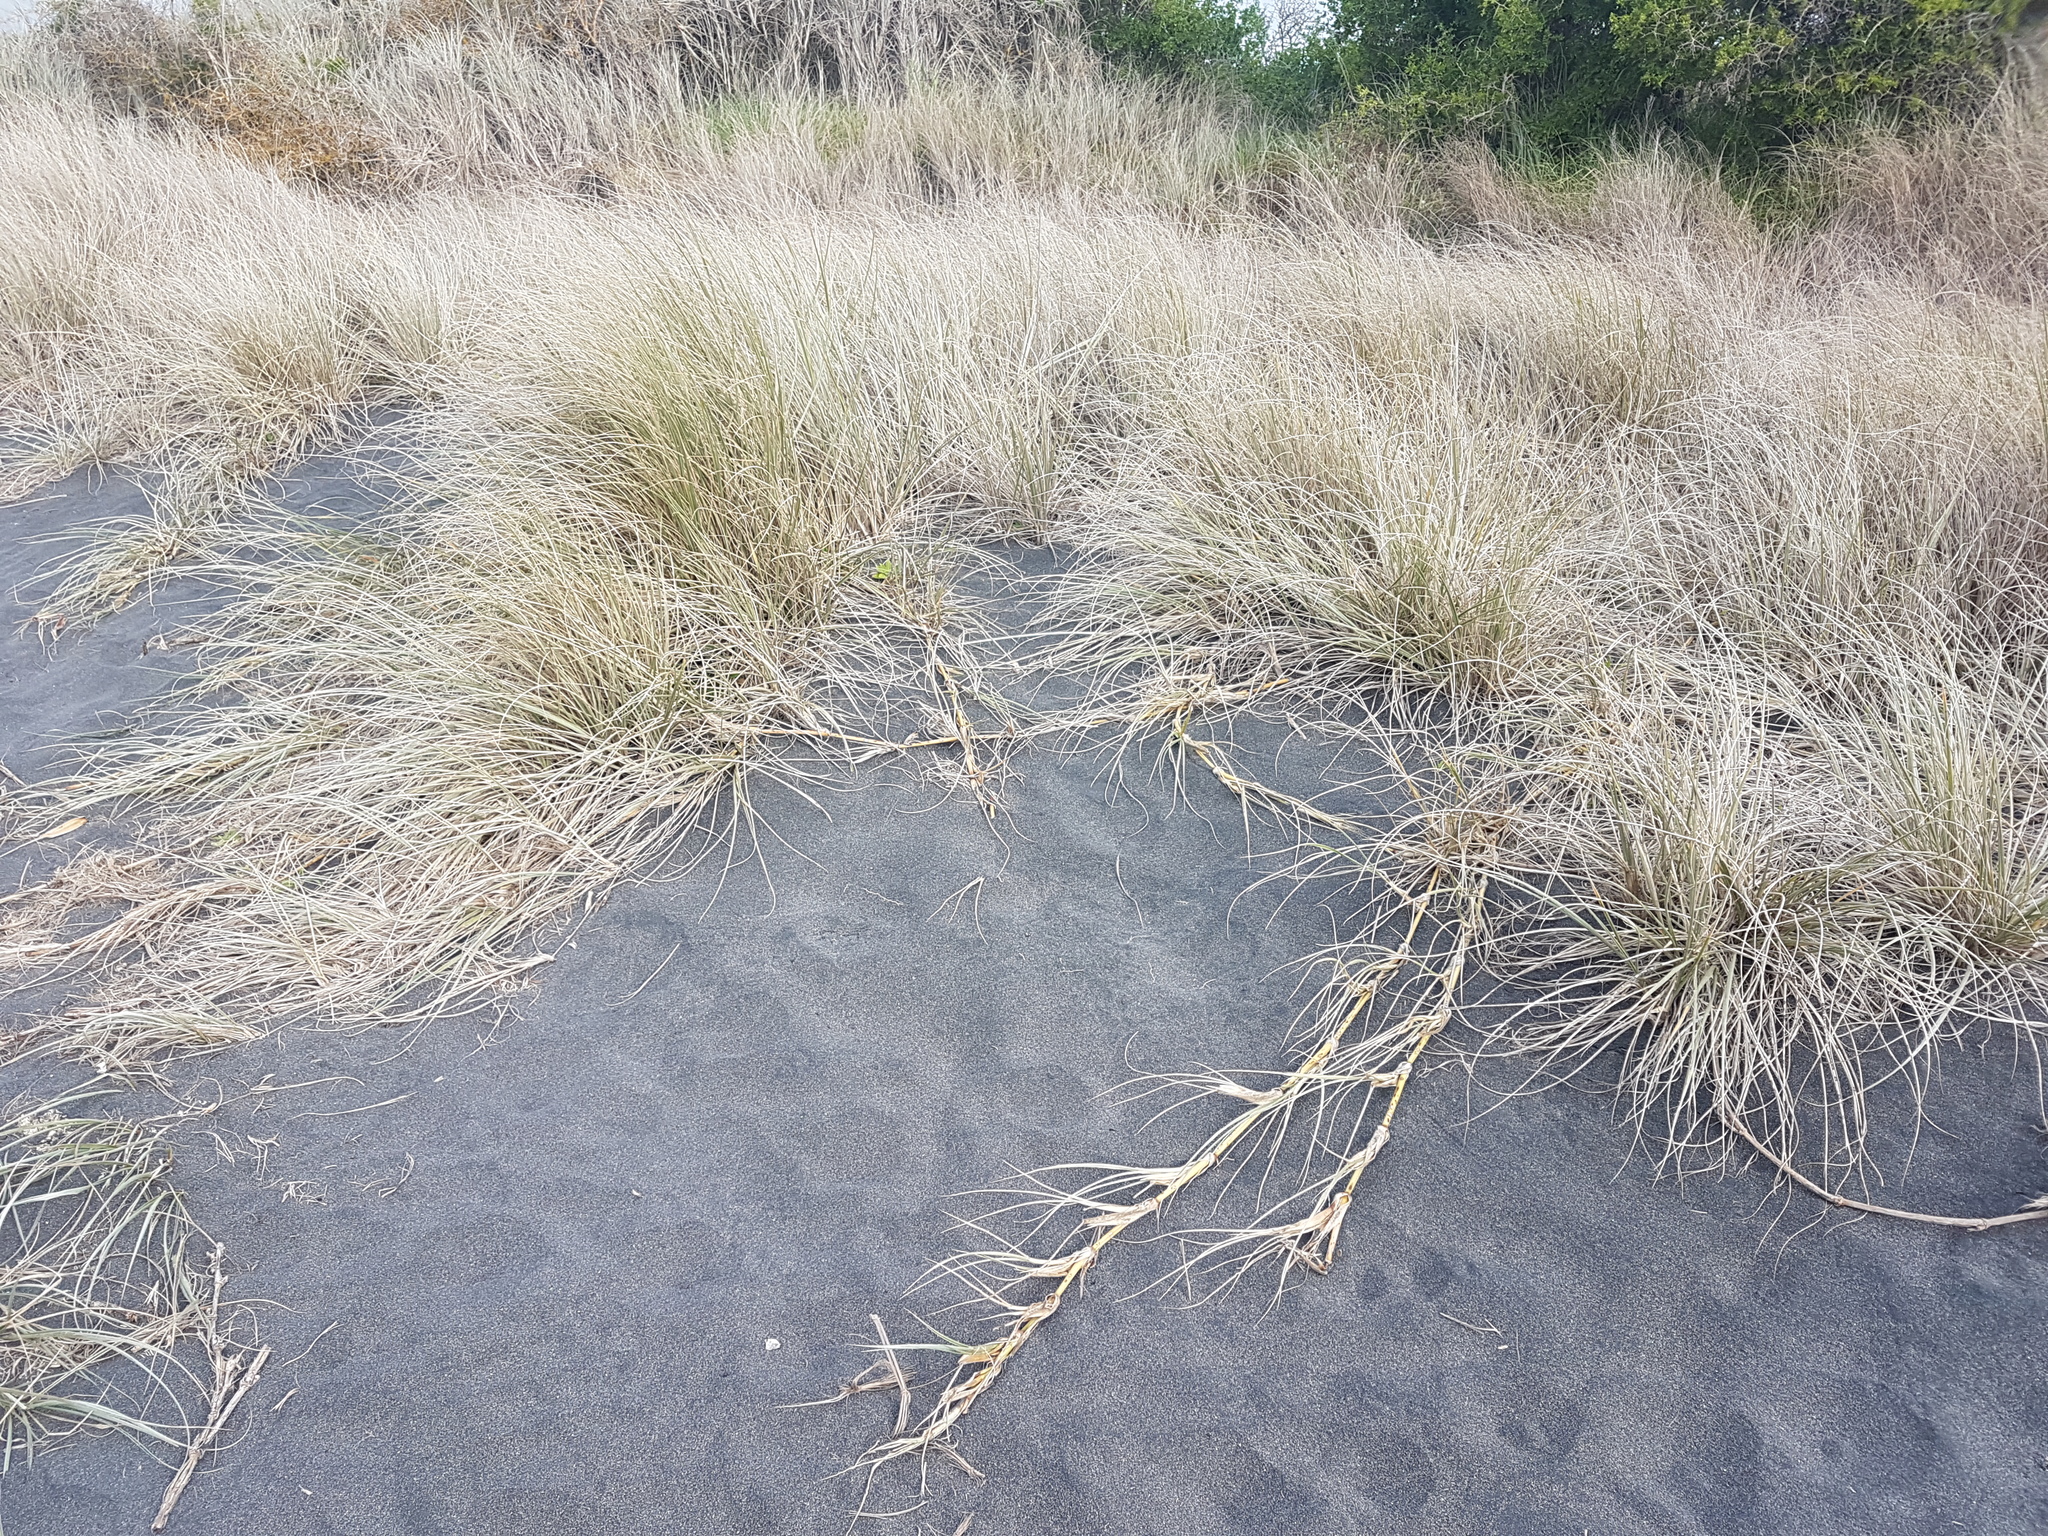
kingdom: Plantae
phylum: Tracheophyta
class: Liliopsida
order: Poales
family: Poaceae
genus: Spinifex
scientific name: Spinifex sericeus
